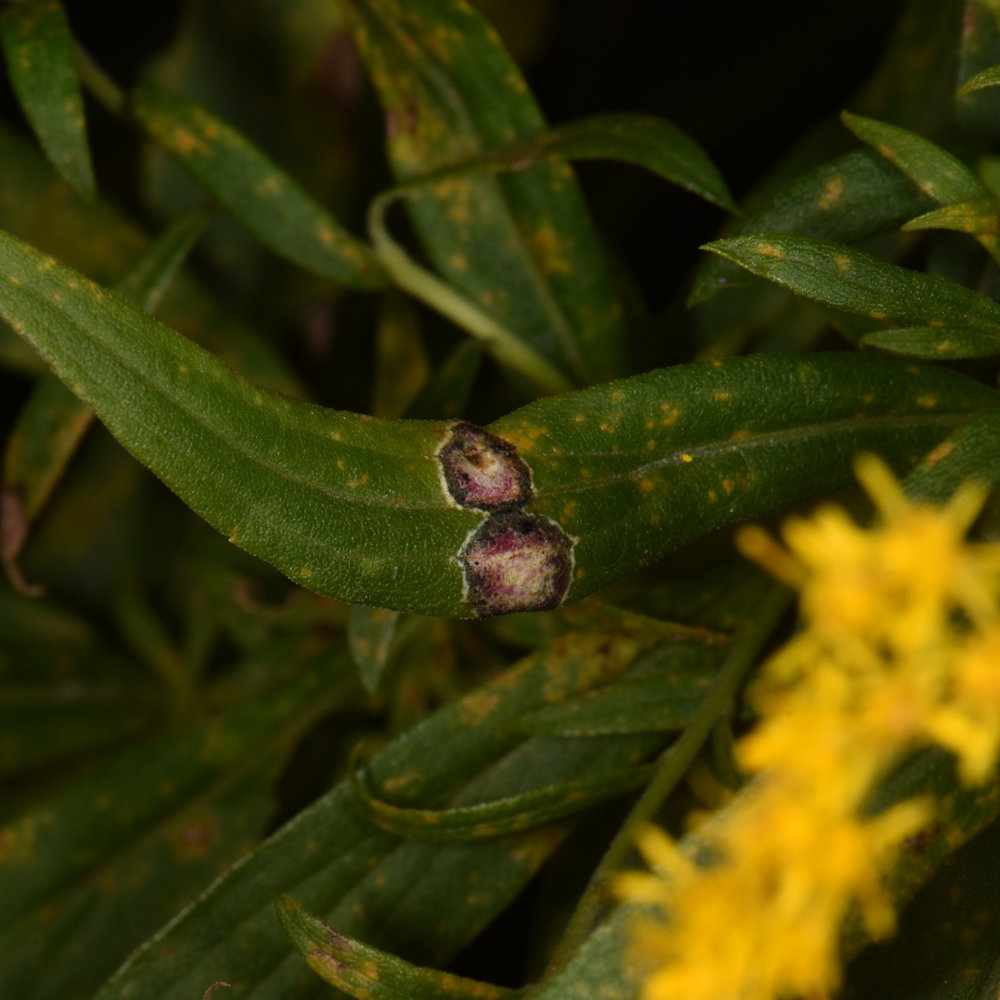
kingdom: Animalia
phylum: Arthropoda
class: Insecta
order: Diptera
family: Cecidomyiidae
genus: Asteromyia
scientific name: Asteromyia carbonifera
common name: Carbonifera goldenrod gall midge
